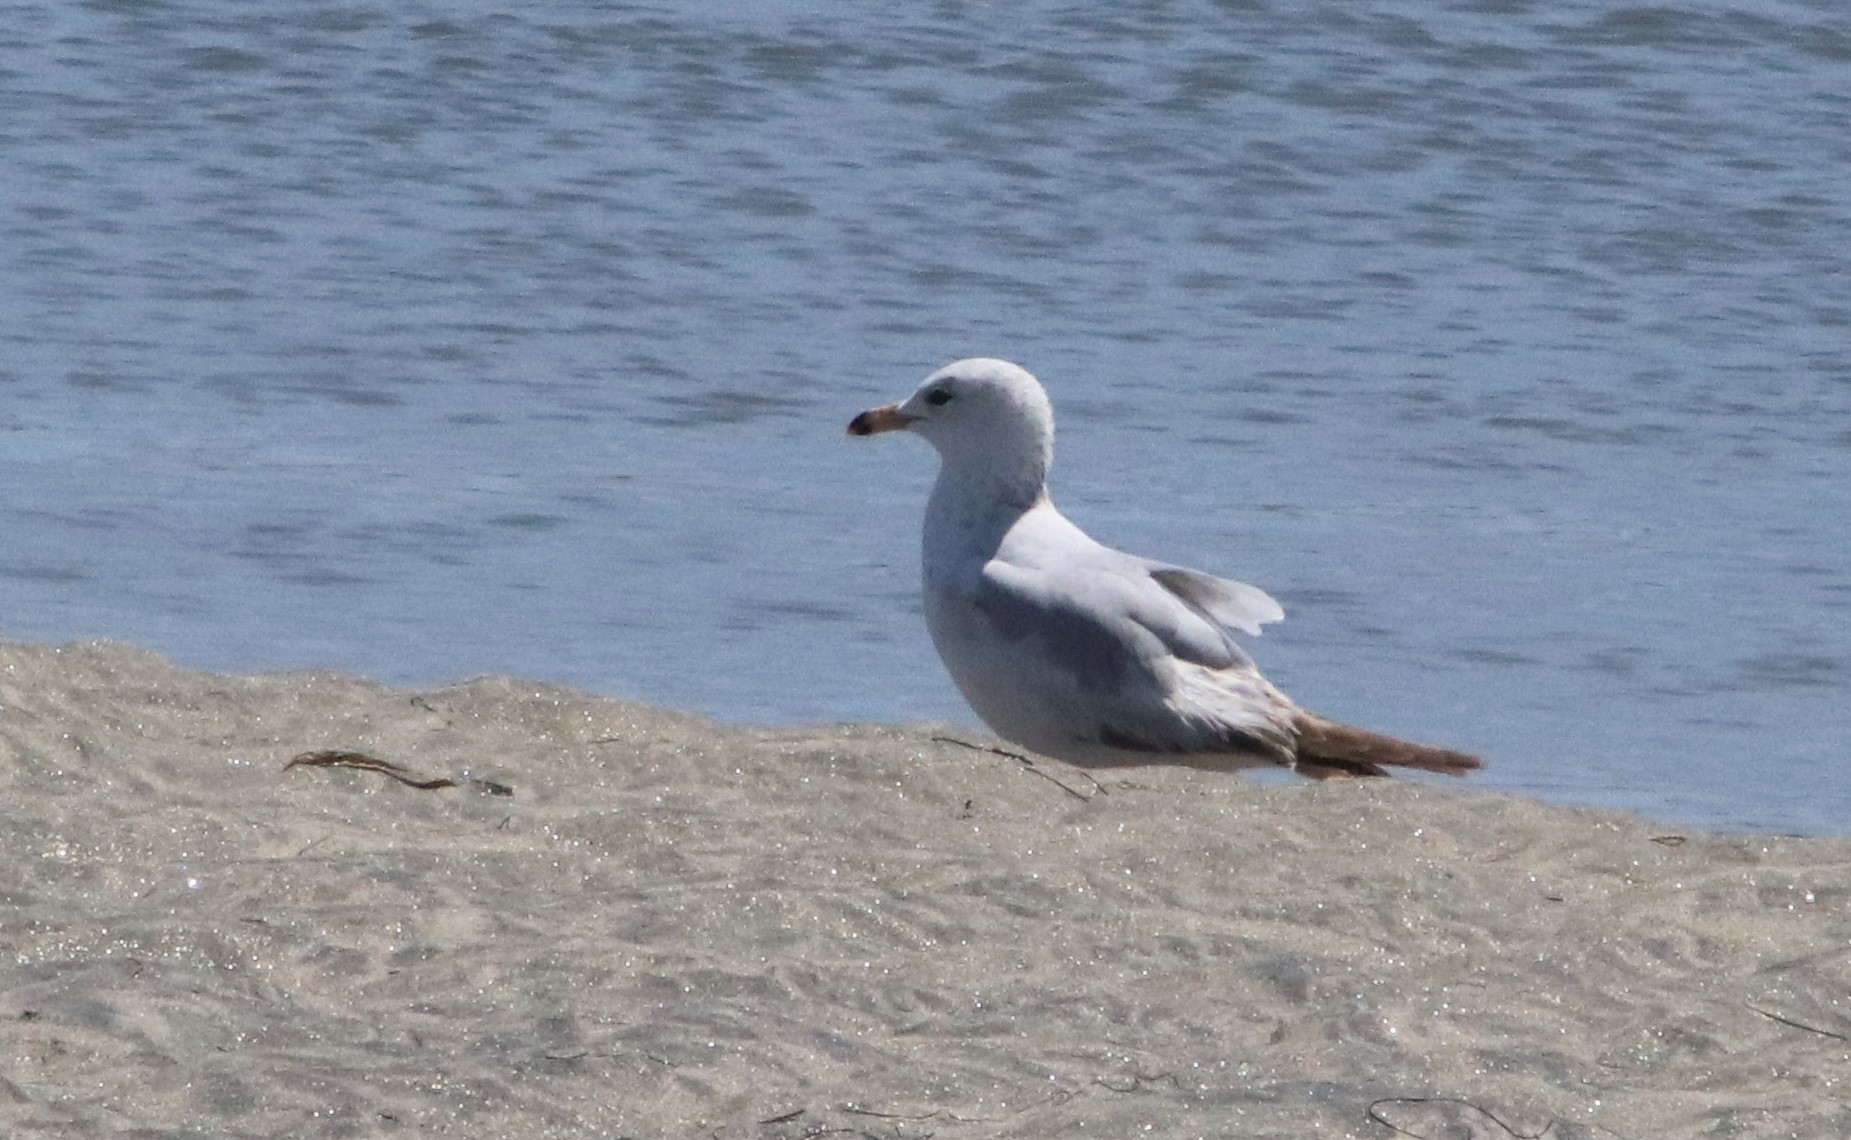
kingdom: Animalia
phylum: Chordata
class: Aves
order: Charadriiformes
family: Laridae
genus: Larus
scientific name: Larus delawarensis
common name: Ring-billed gull
